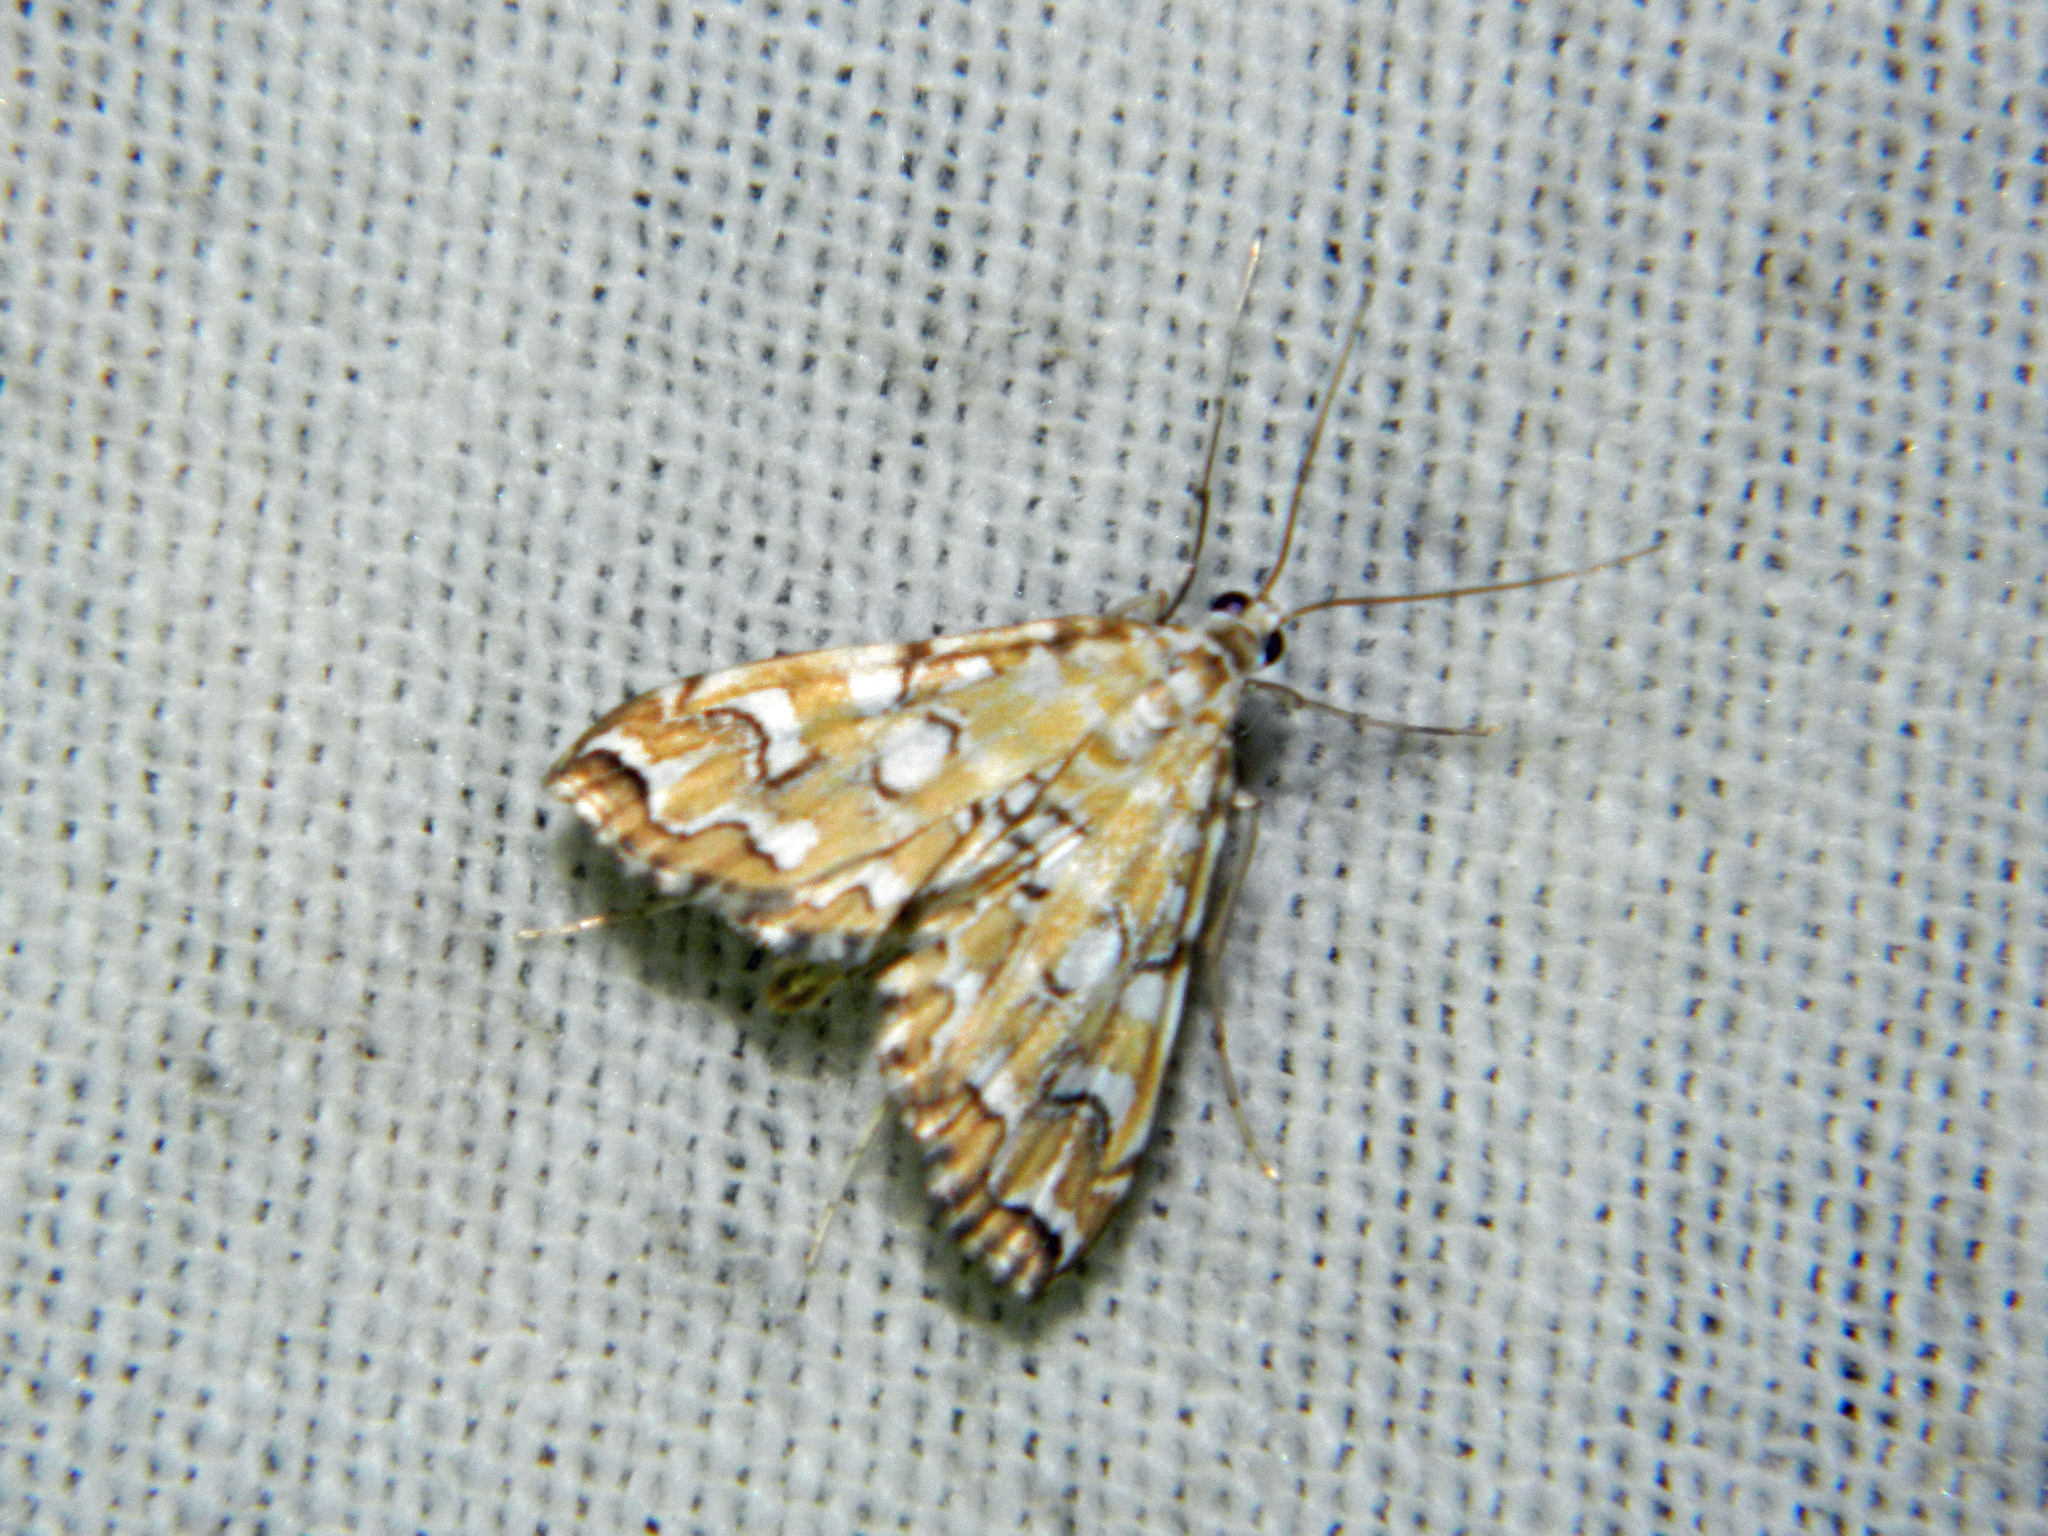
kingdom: Animalia
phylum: Arthropoda
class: Insecta
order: Lepidoptera
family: Crambidae
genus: Elophila
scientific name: Elophila icciusalis
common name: Pondside pyralid moth
